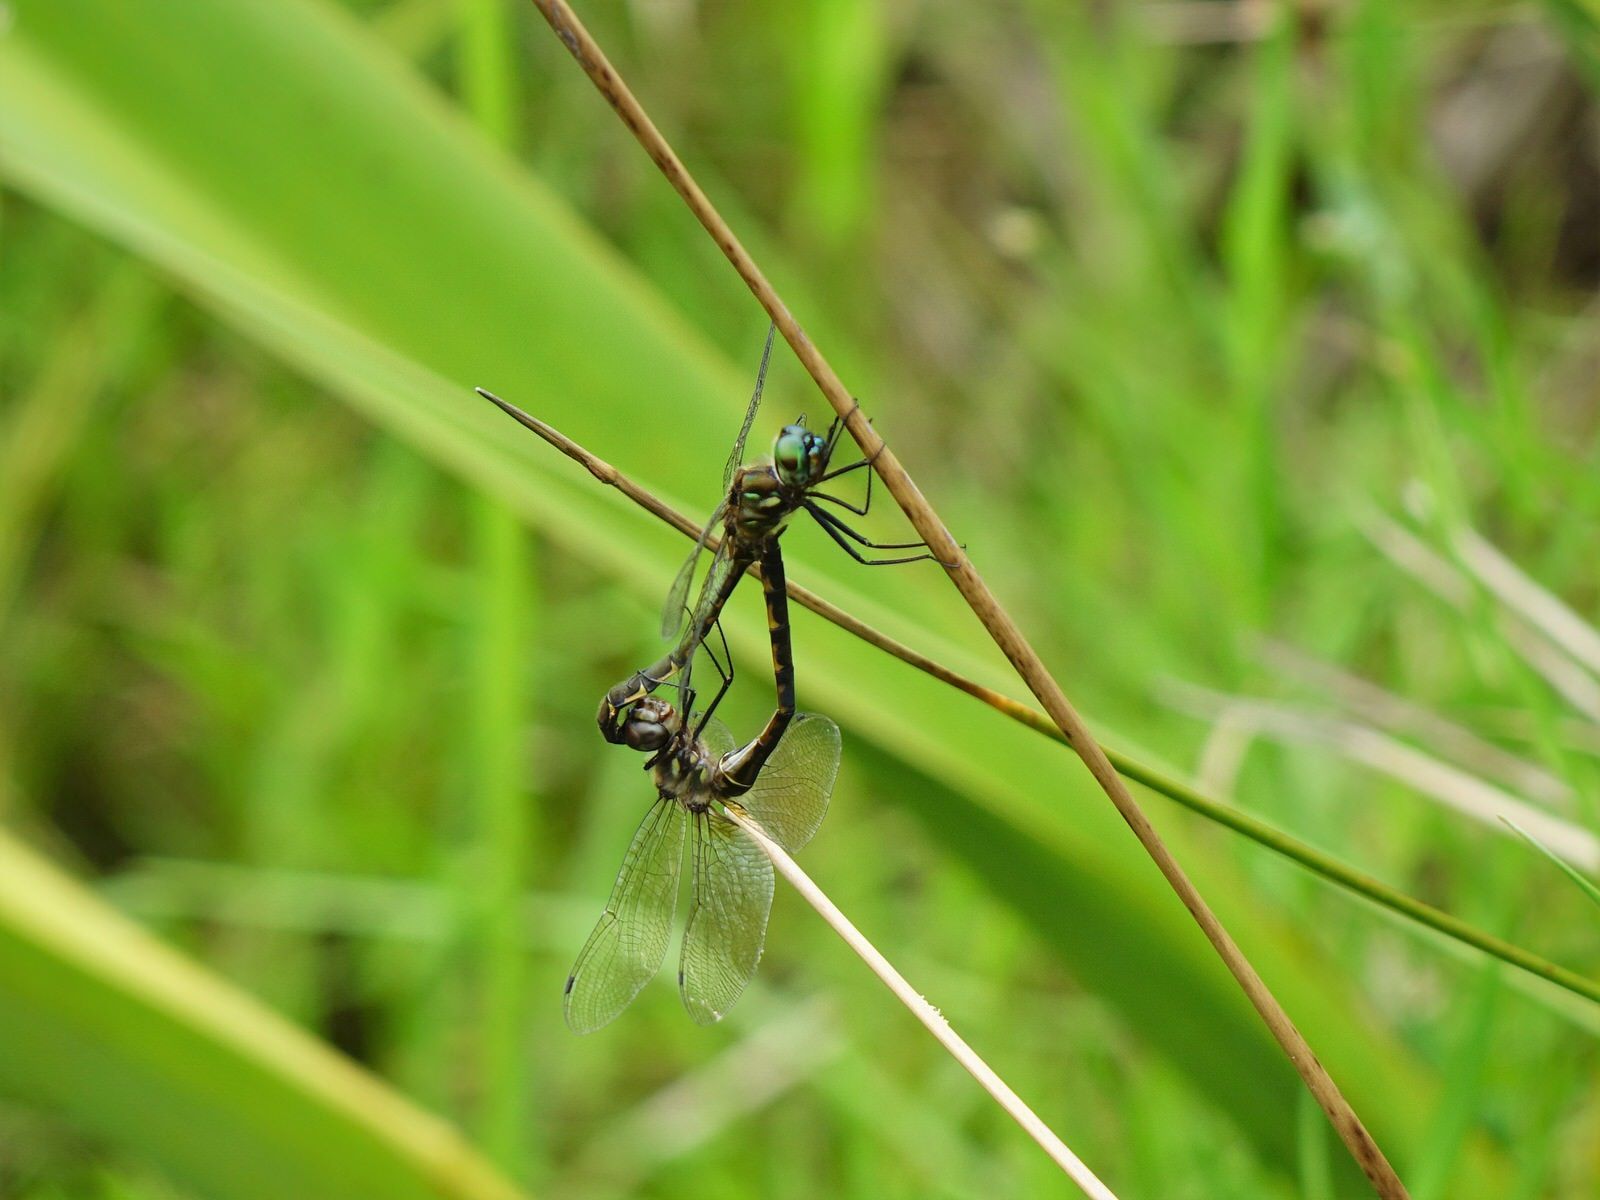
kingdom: Animalia
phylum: Arthropoda
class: Insecta
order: Odonata
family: Corduliidae
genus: Hemicordulia
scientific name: Hemicordulia australiae
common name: Sentry dragonfly
